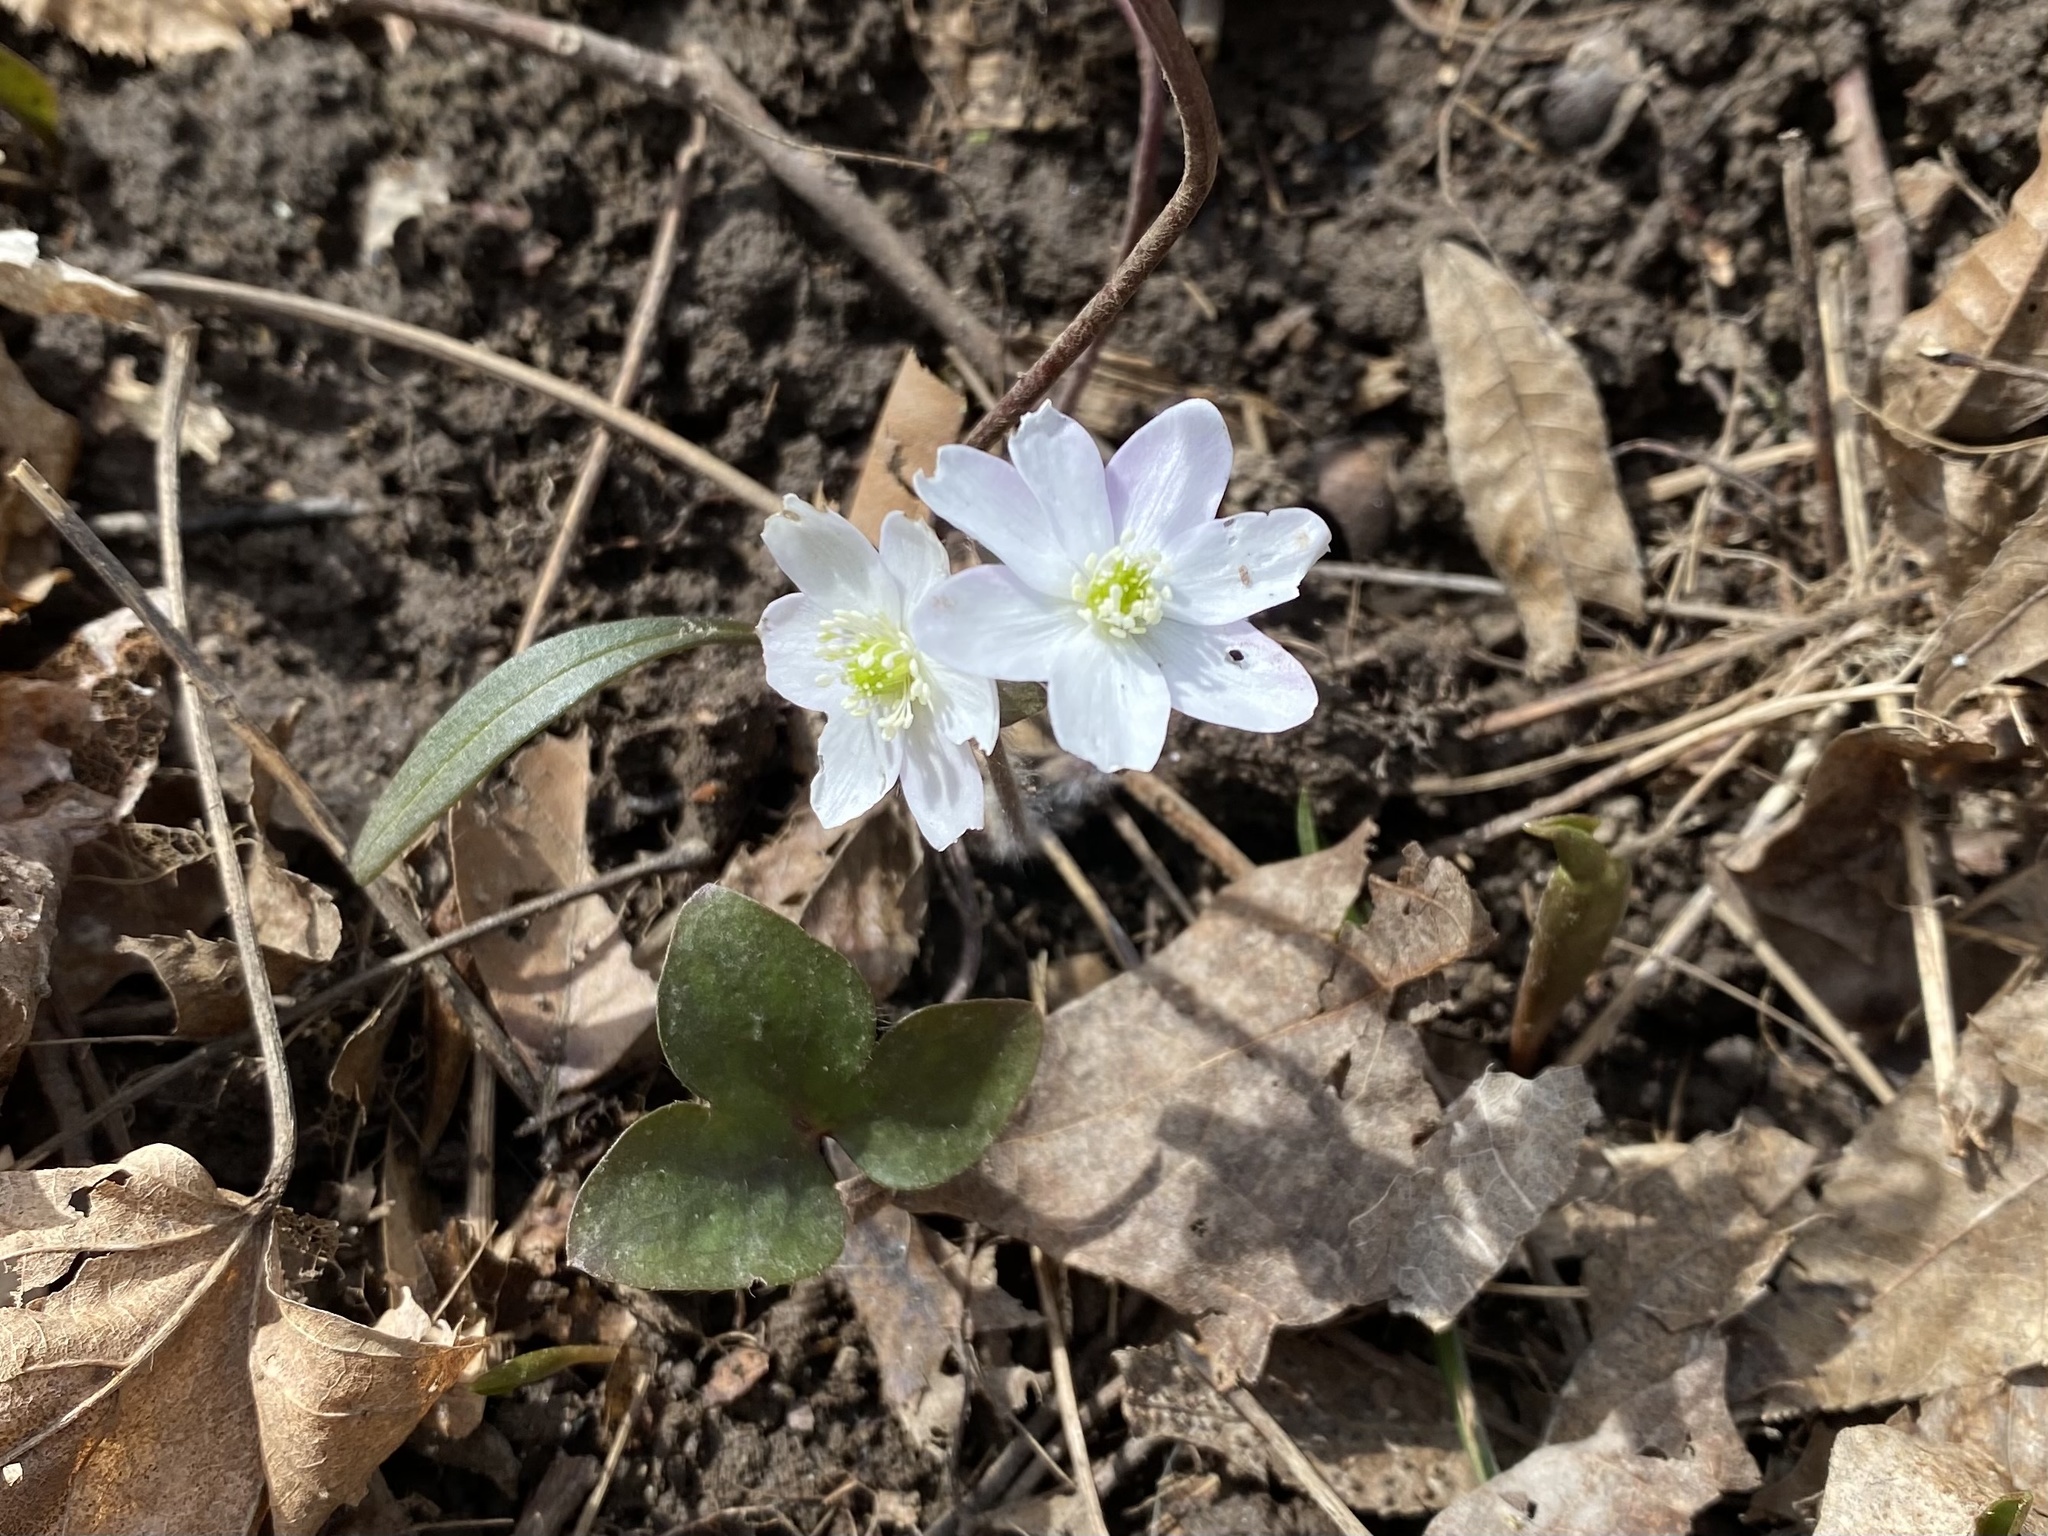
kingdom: Plantae
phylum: Tracheophyta
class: Magnoliopsida
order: Ranunculales
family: Ranunculaceae
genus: Hepatica
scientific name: Hepatica acutiloba
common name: Sharp-lobed hepatica
